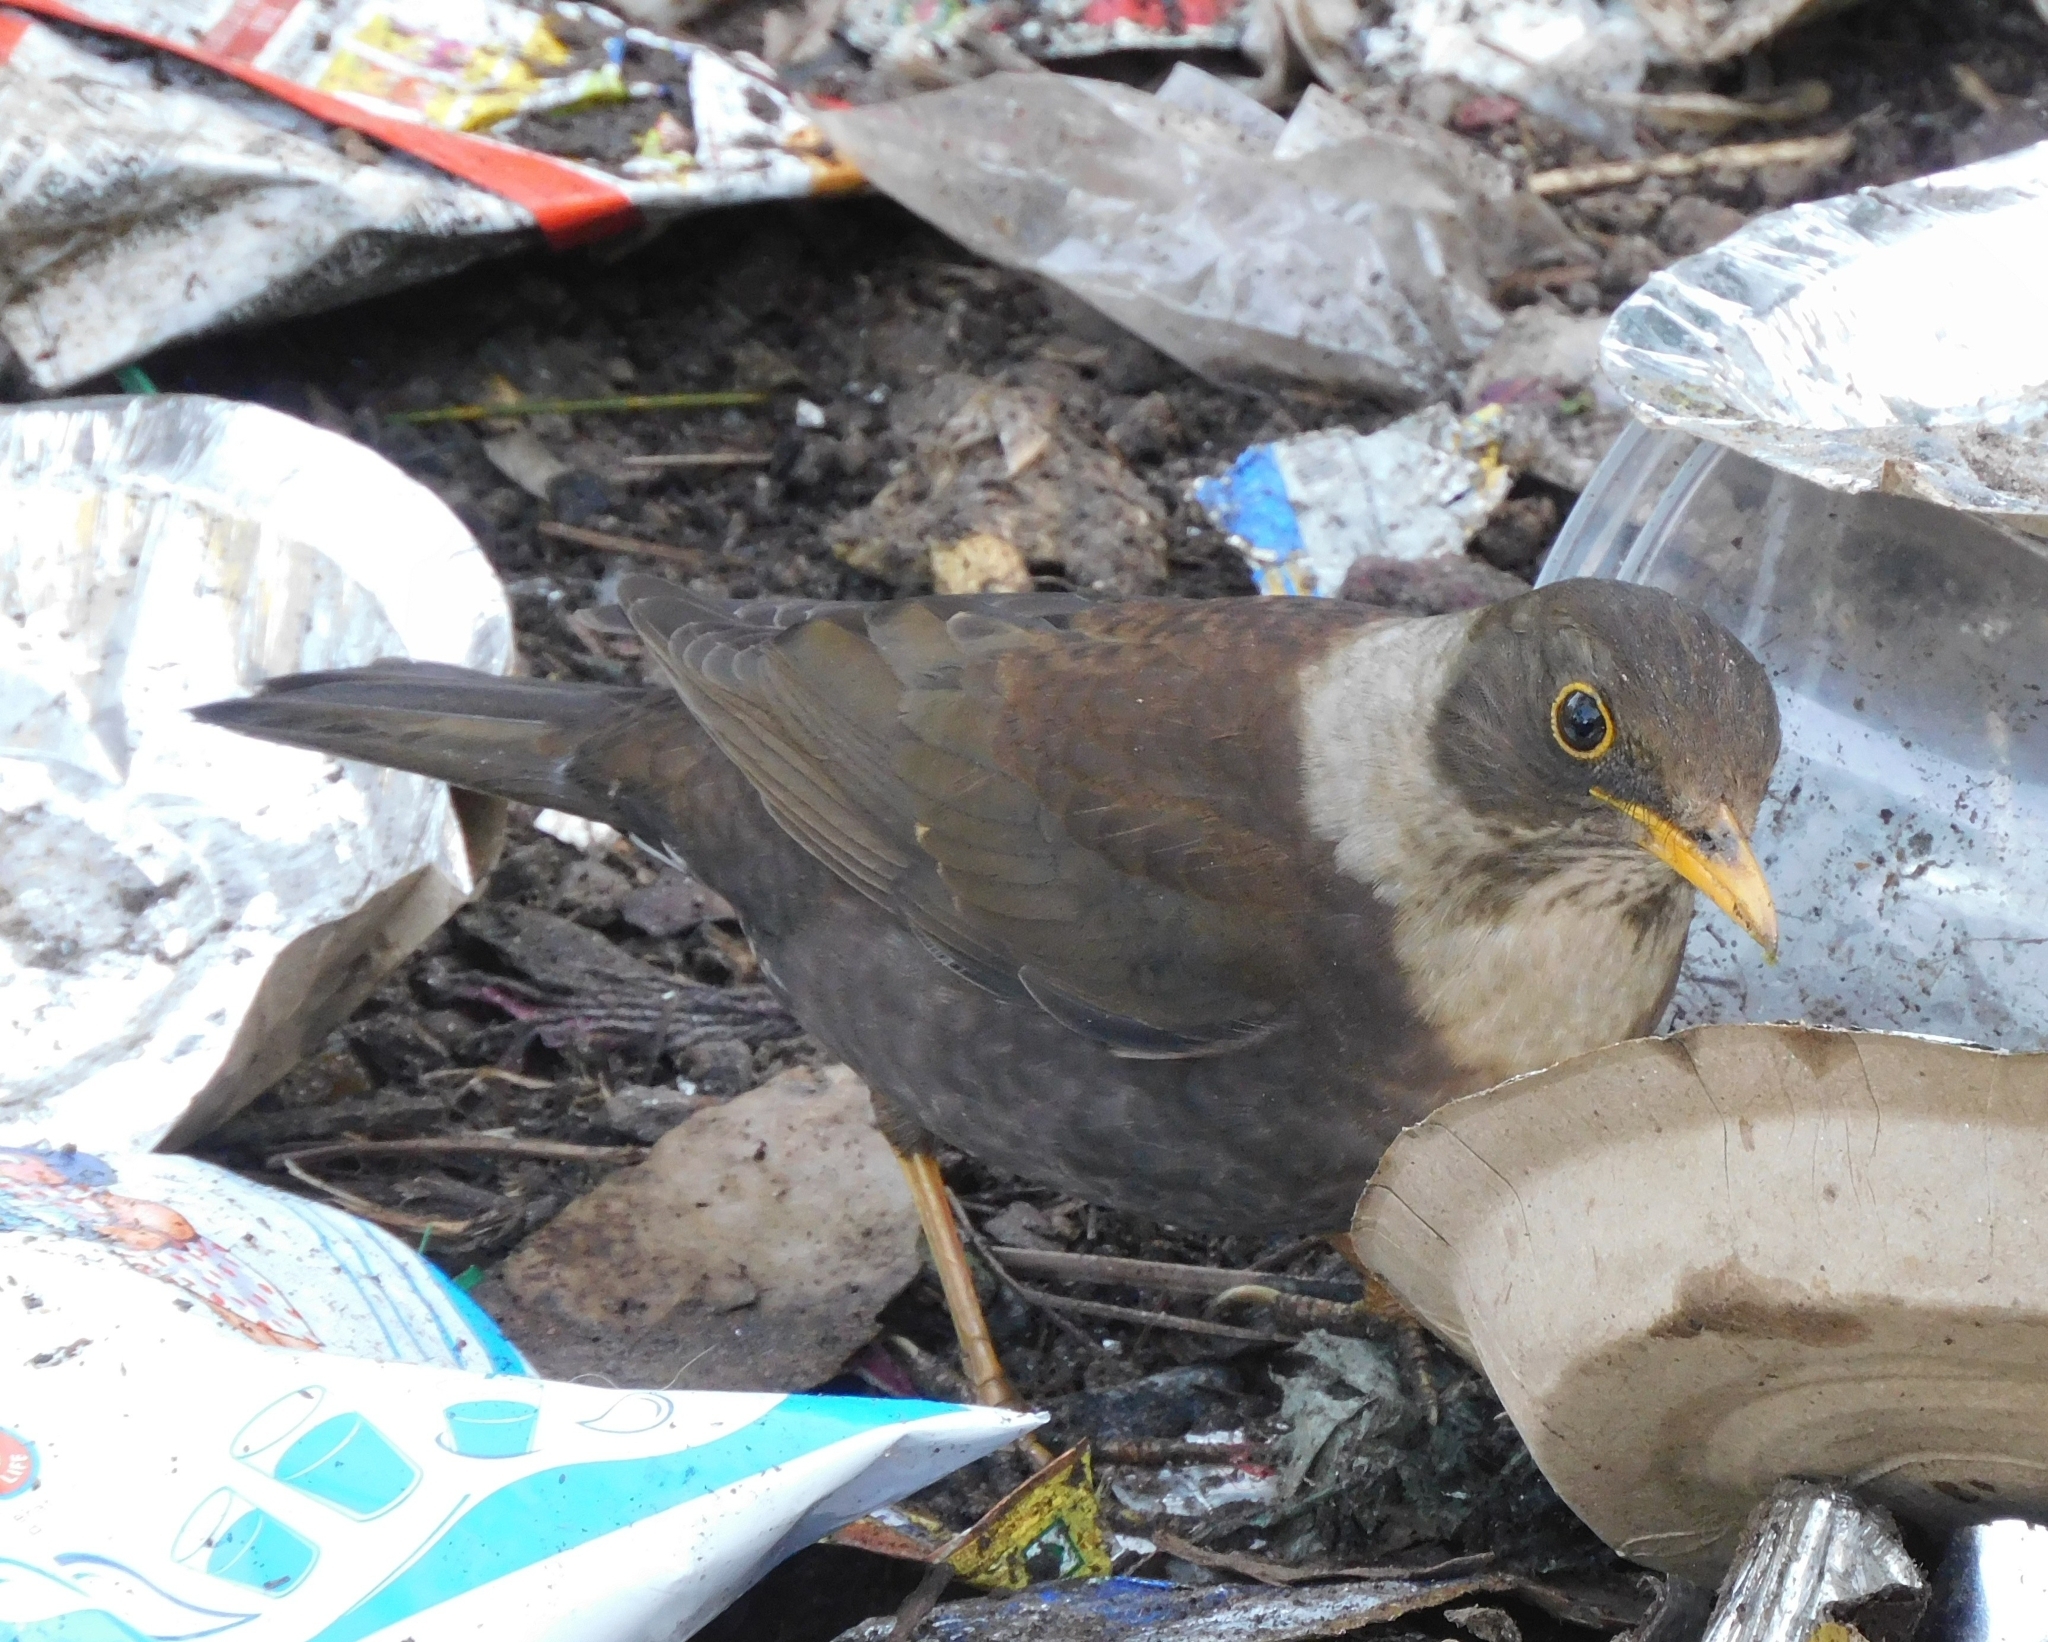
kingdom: Animalia
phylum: Chordata
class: Aves
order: Passeriformes
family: Turdidae
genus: Turdus
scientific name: Turdus albocinctus
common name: White-collared blackbird
